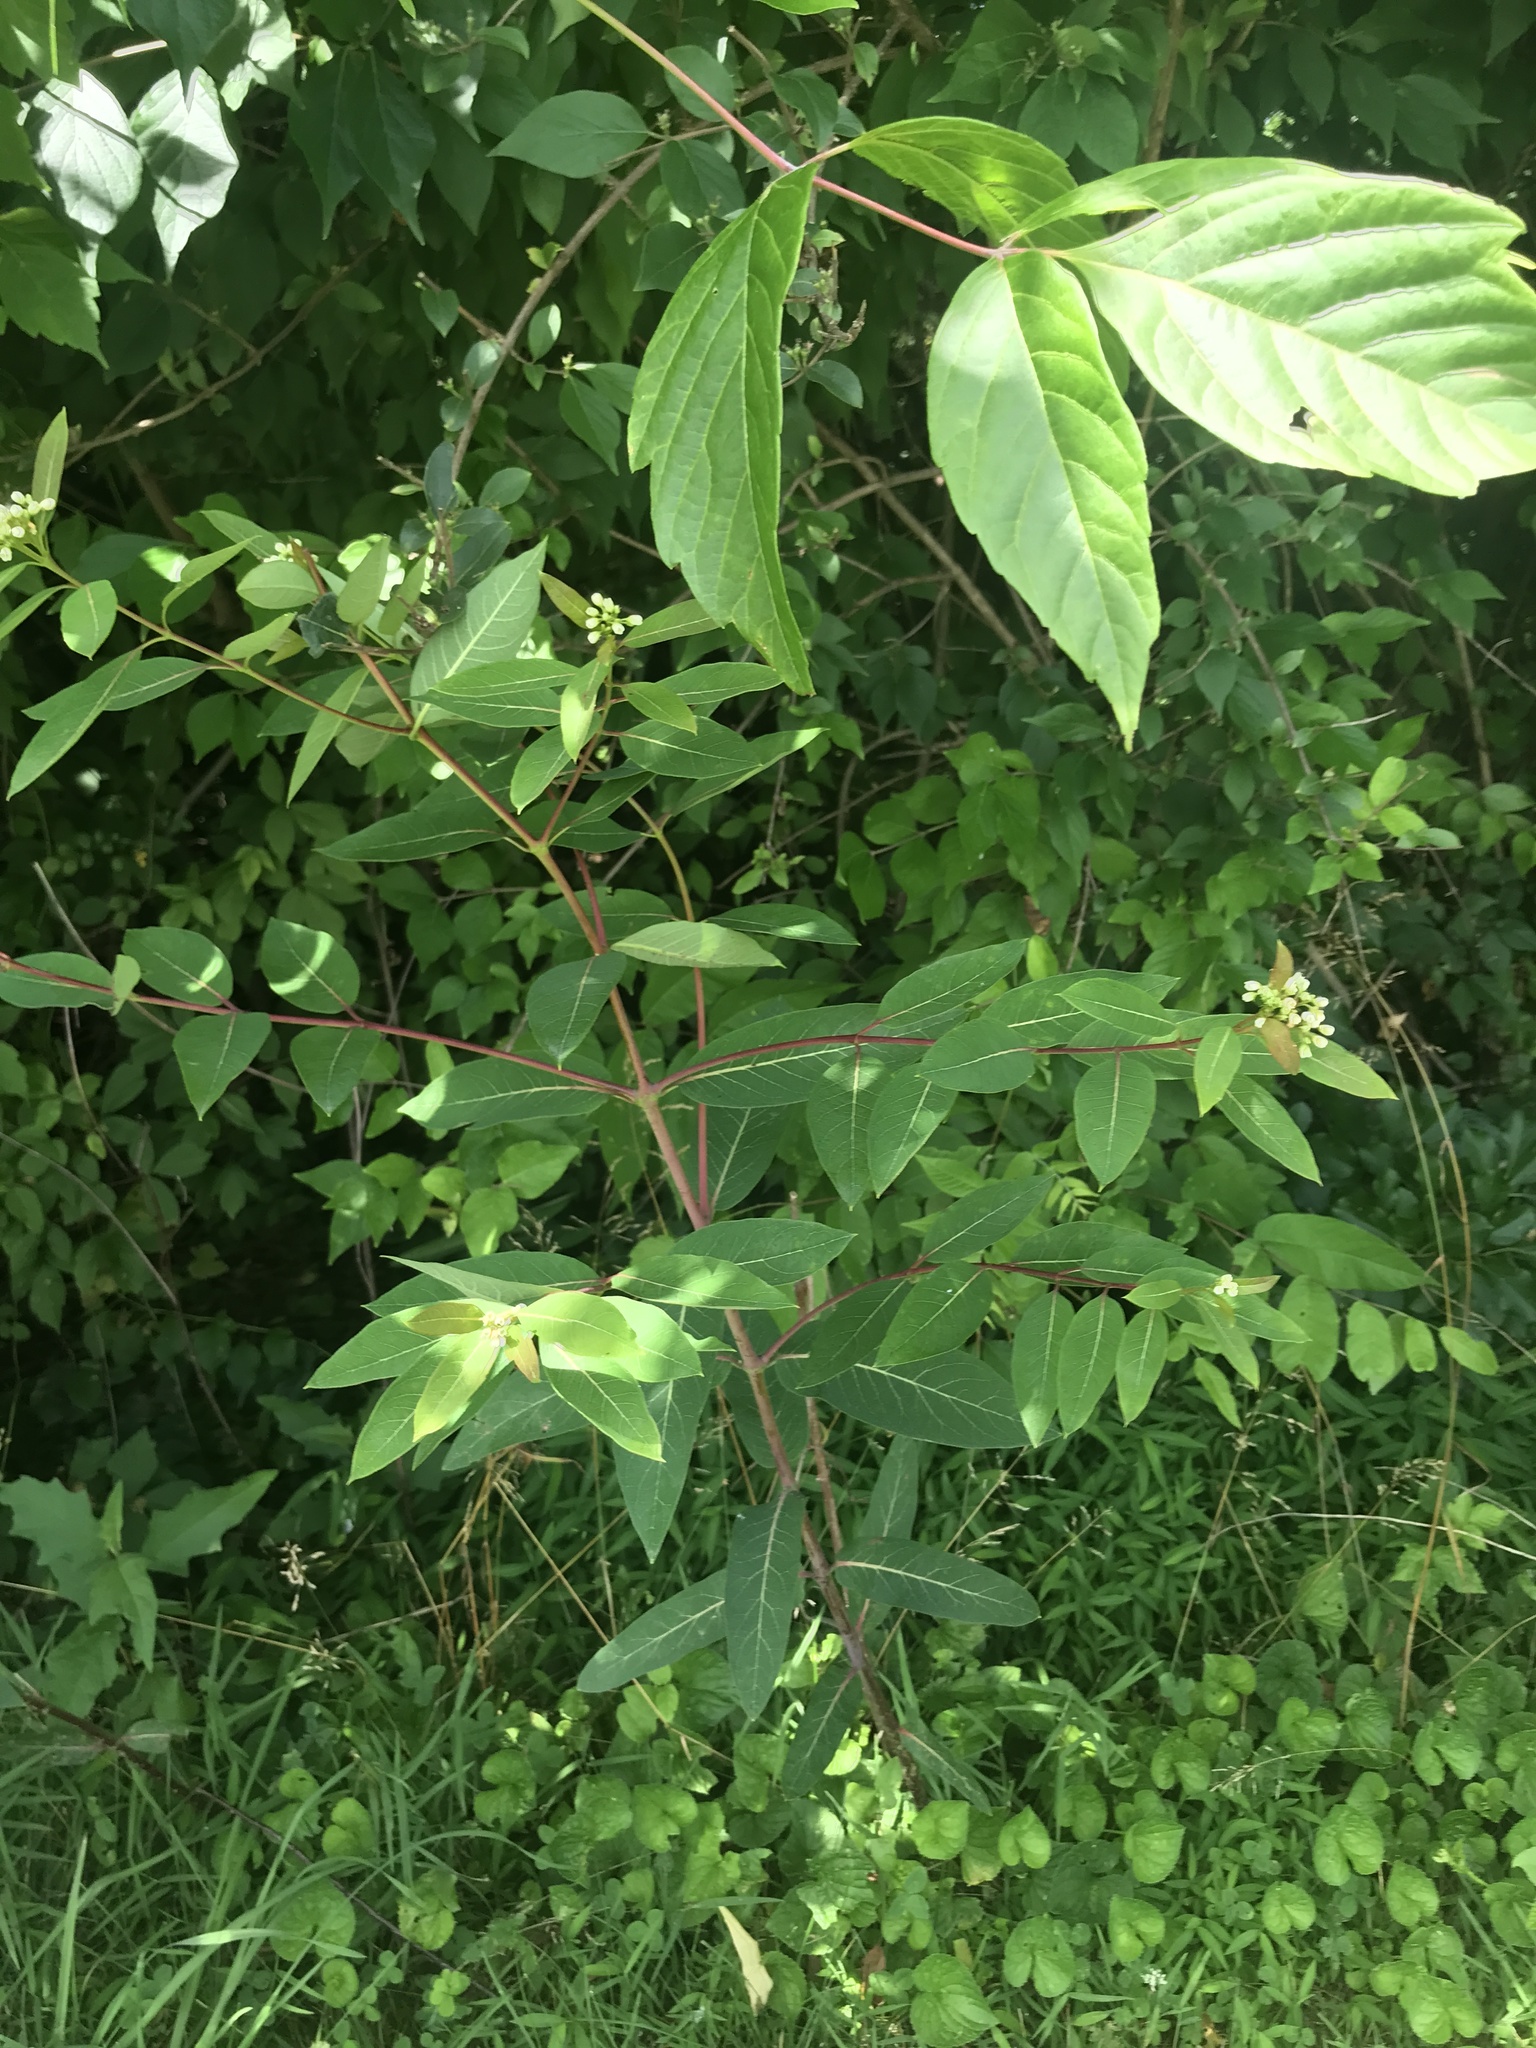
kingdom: Plantae
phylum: Tracheophyta
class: Magnoliopsida
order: Gentianales
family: Apocynaceae
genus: Apocynum
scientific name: Apocynum cannabinum
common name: Hemp dogbane
